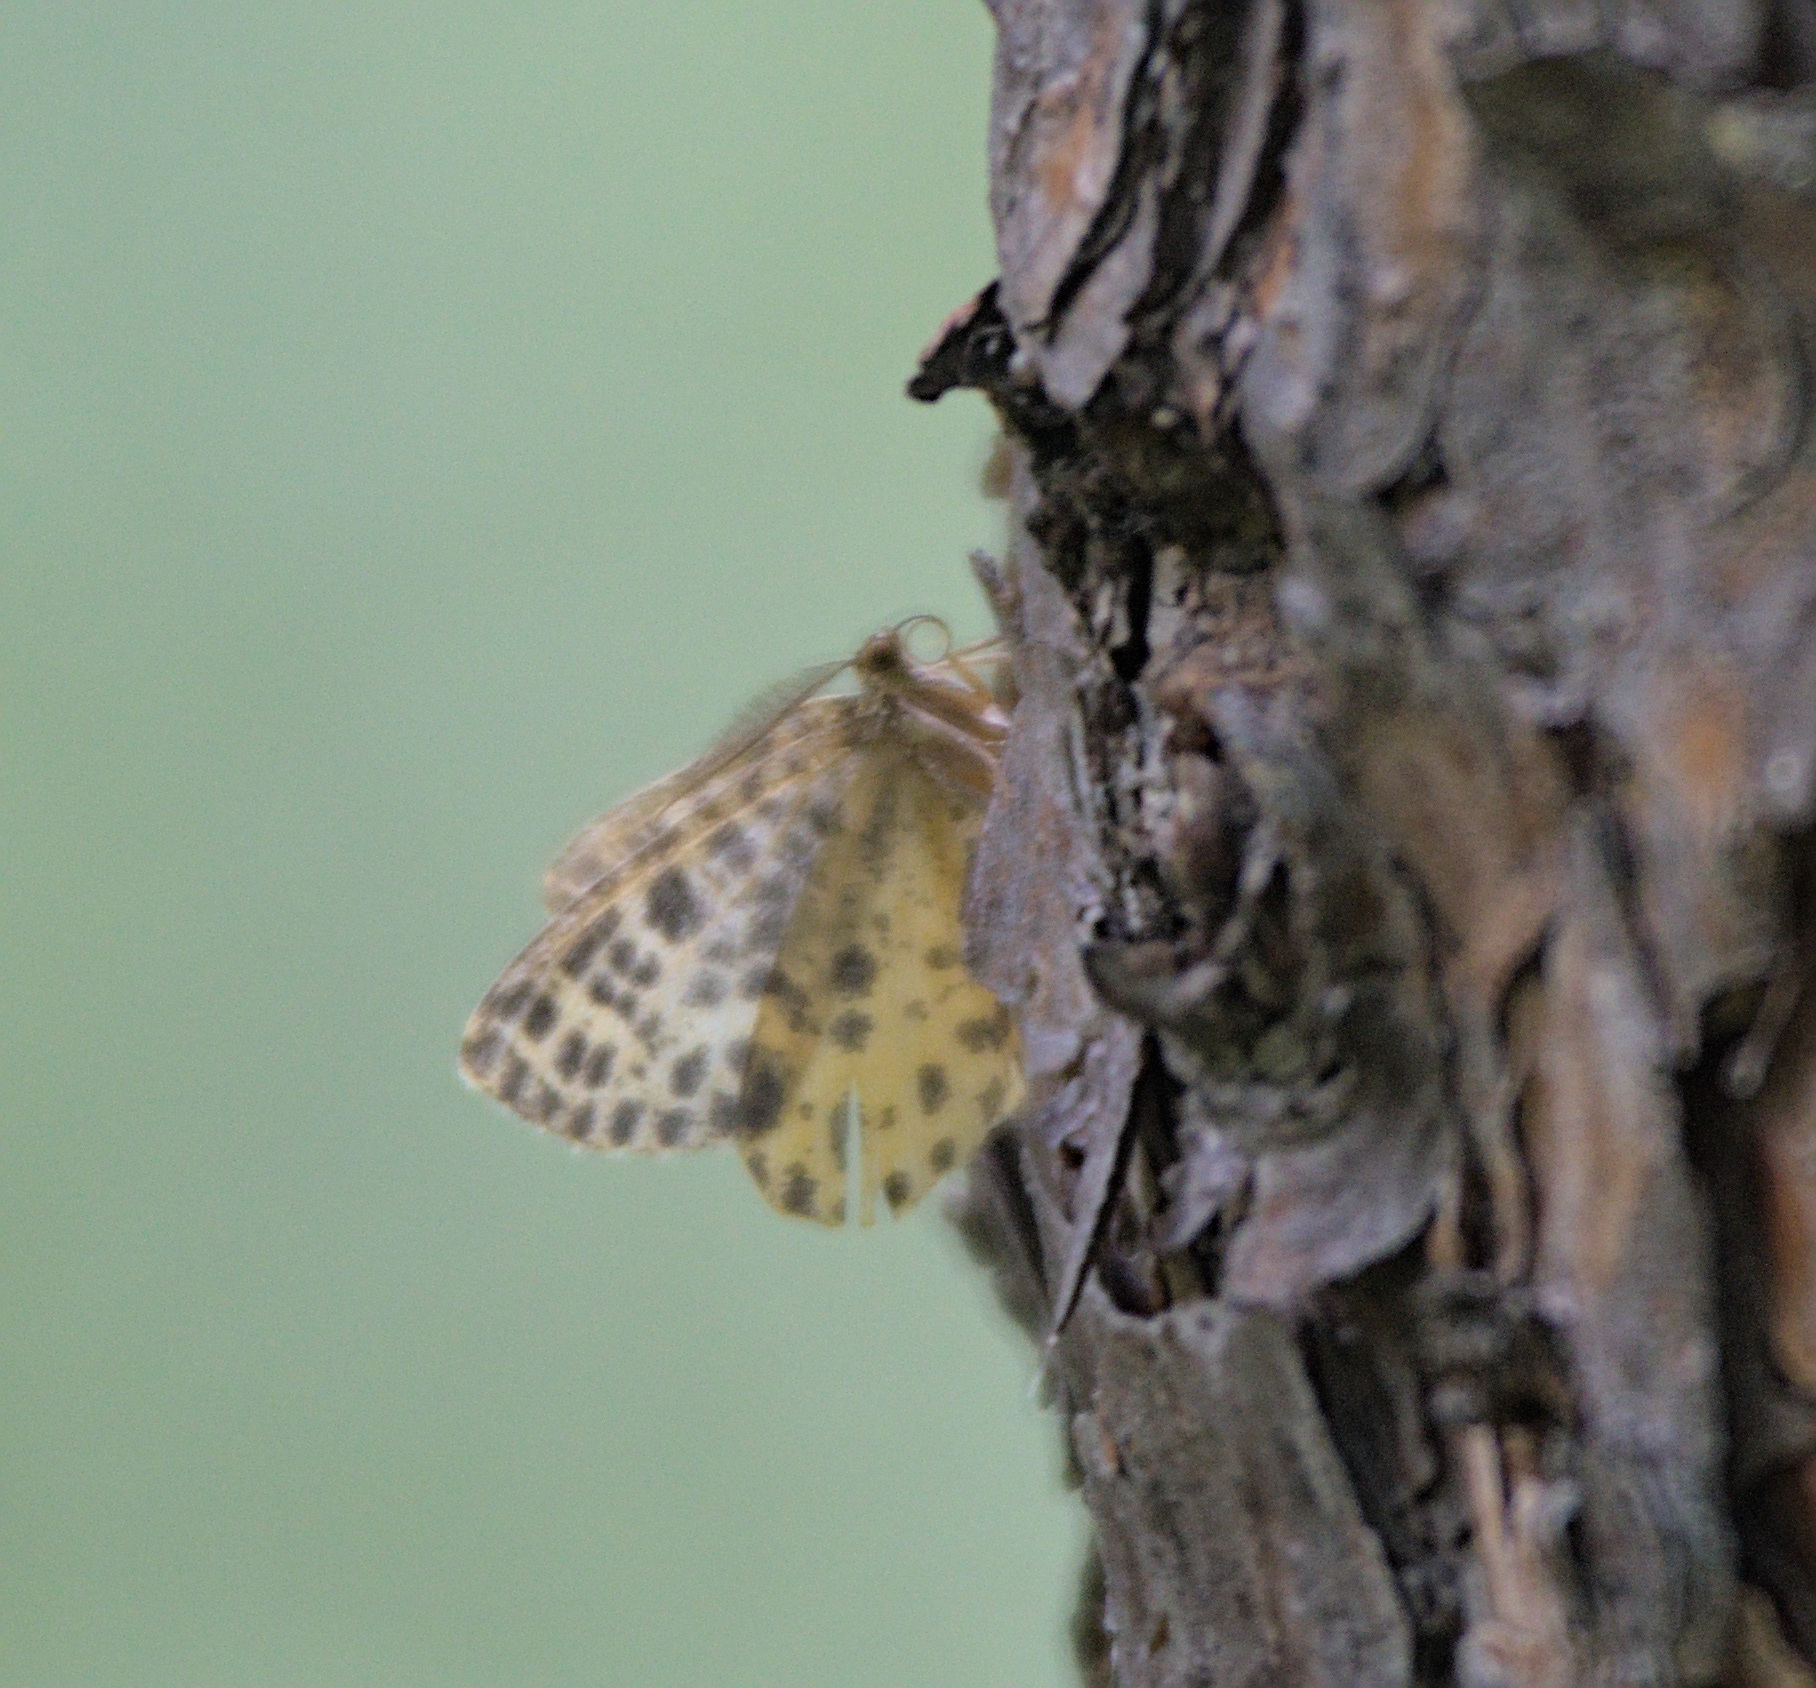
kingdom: Animalia
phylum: Arthropoda
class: Insecta
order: Lepidoptera
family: Geometridae
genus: Arichanna
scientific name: Arichanna melanaria
